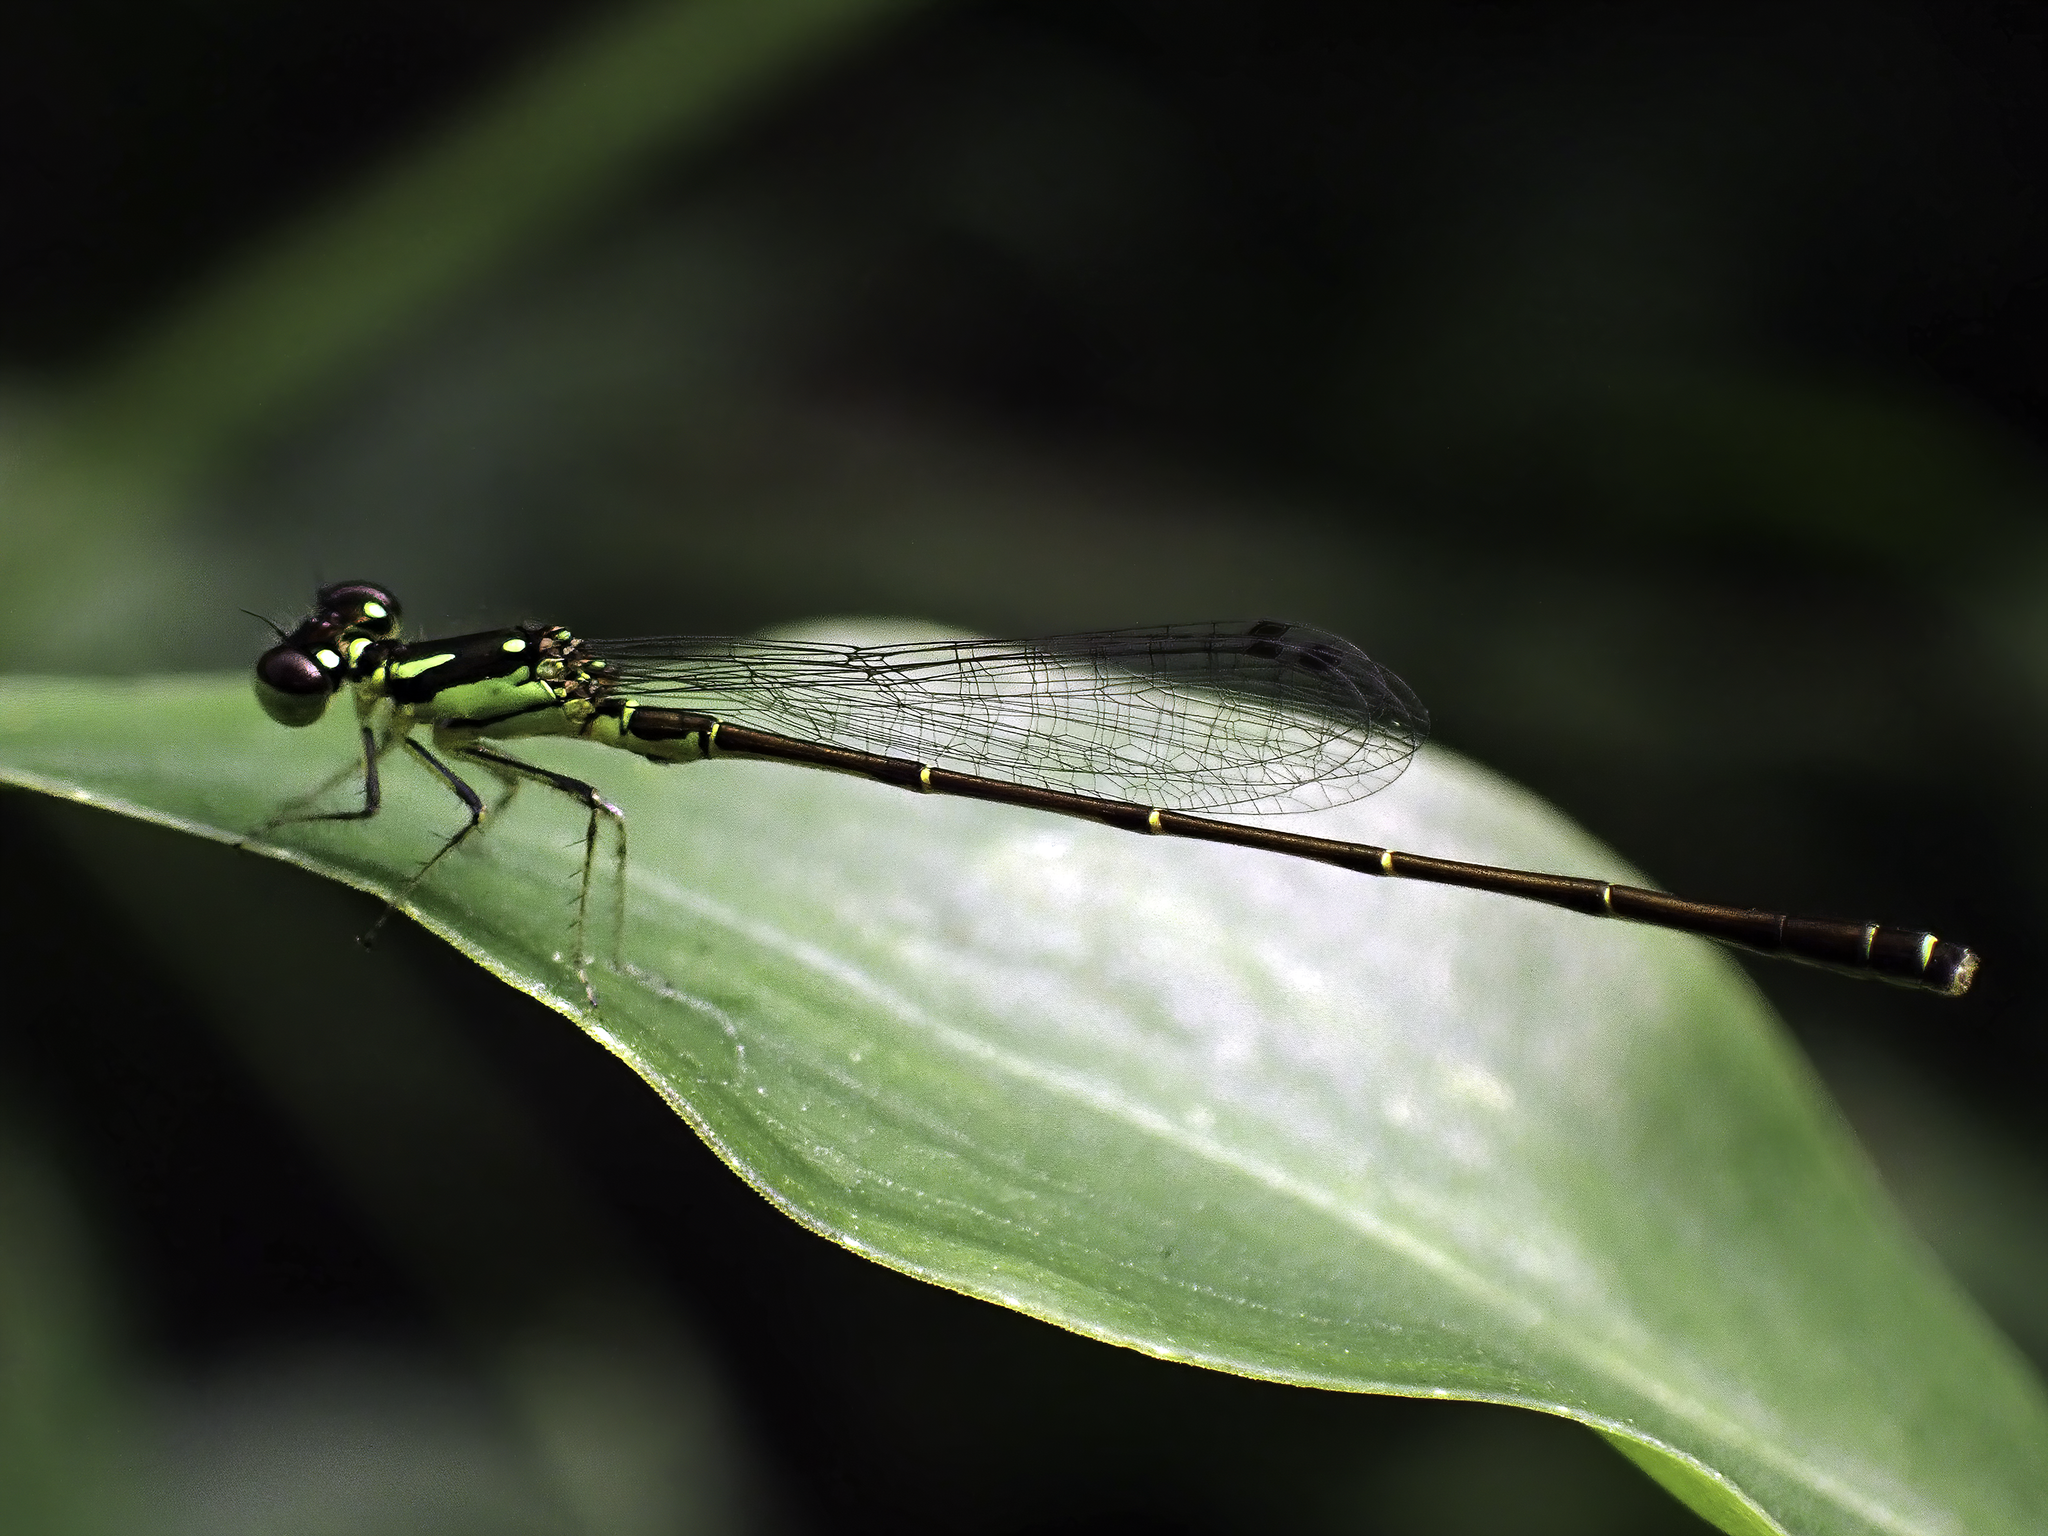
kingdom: Animalia
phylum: Arthropoda
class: Insecta
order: Odonata
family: Coenagrionidae
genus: Ischnura
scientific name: Ischnura posita
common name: Fragile forktail
